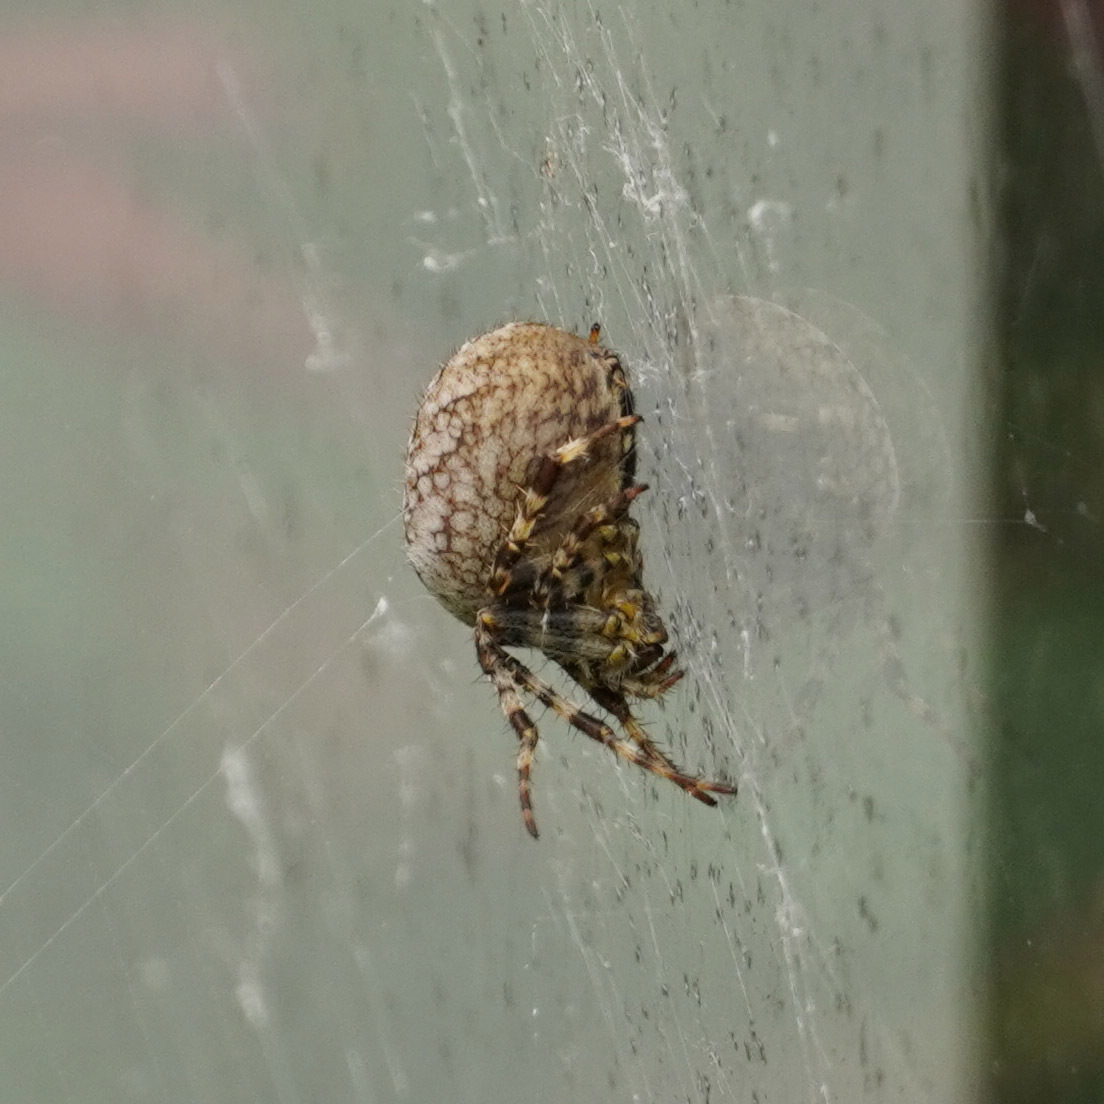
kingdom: Animalia
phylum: Arthropoda
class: Arachnida
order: Araneae
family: Araneidae
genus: Araneus
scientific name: Araneus diadematus
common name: Cross orbweaver
